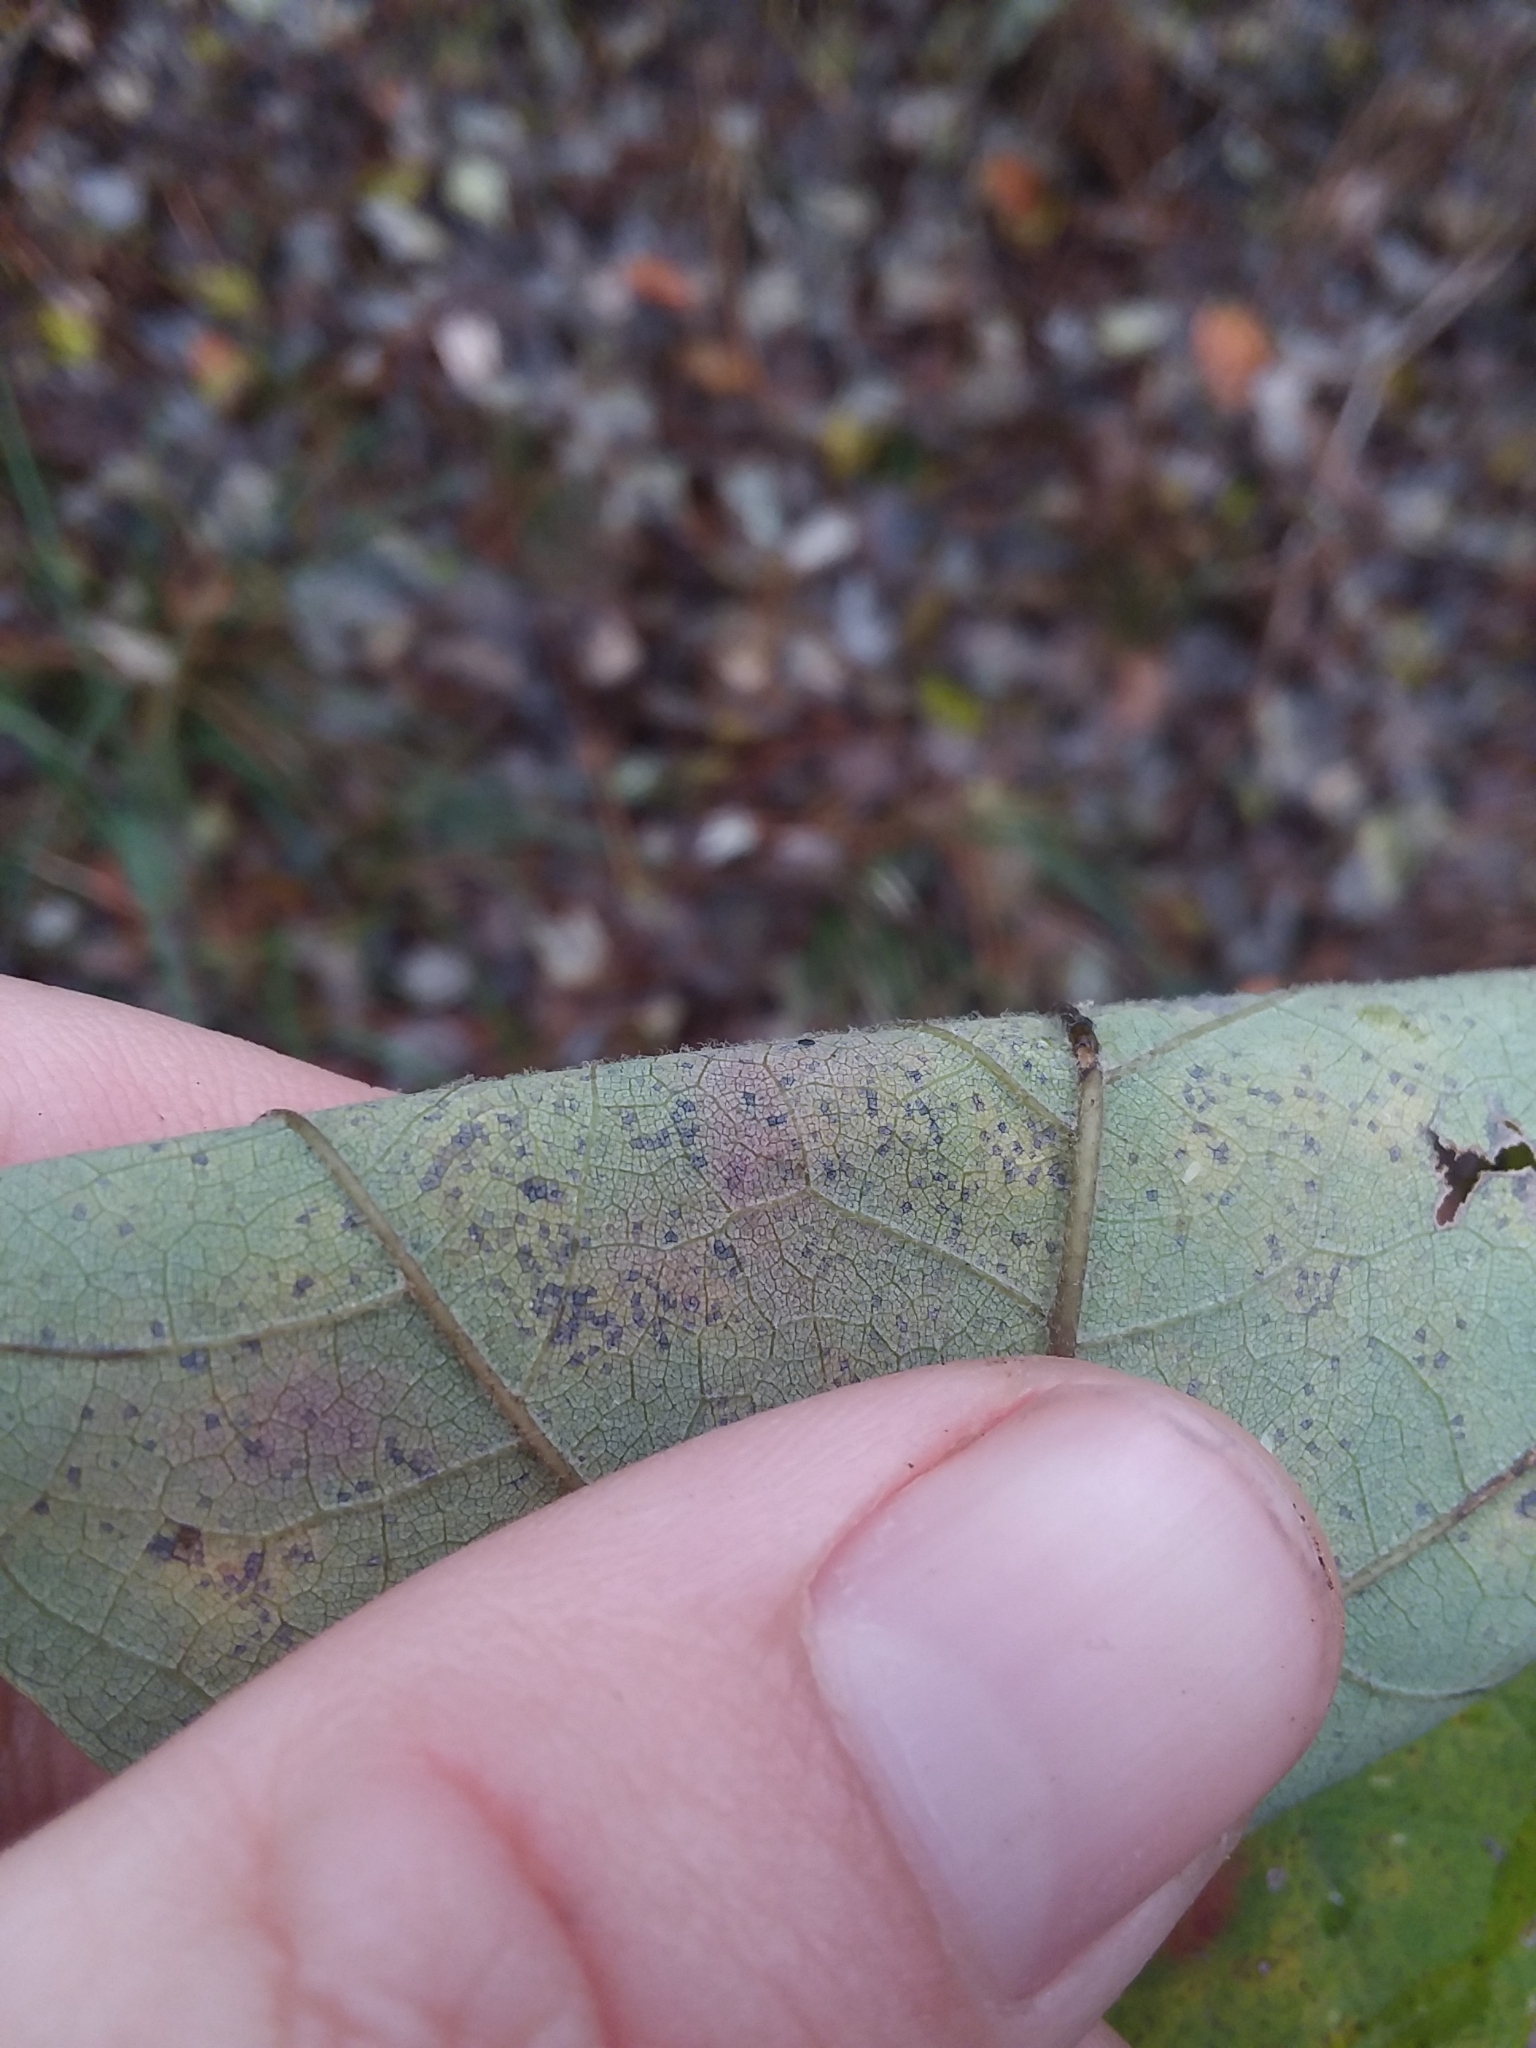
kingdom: Plantae
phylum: Tracheophyta
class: Magnoliopsida
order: Sapindales
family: Sapindaceae
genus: Acer
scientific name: Acer rubrum
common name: Red maple
